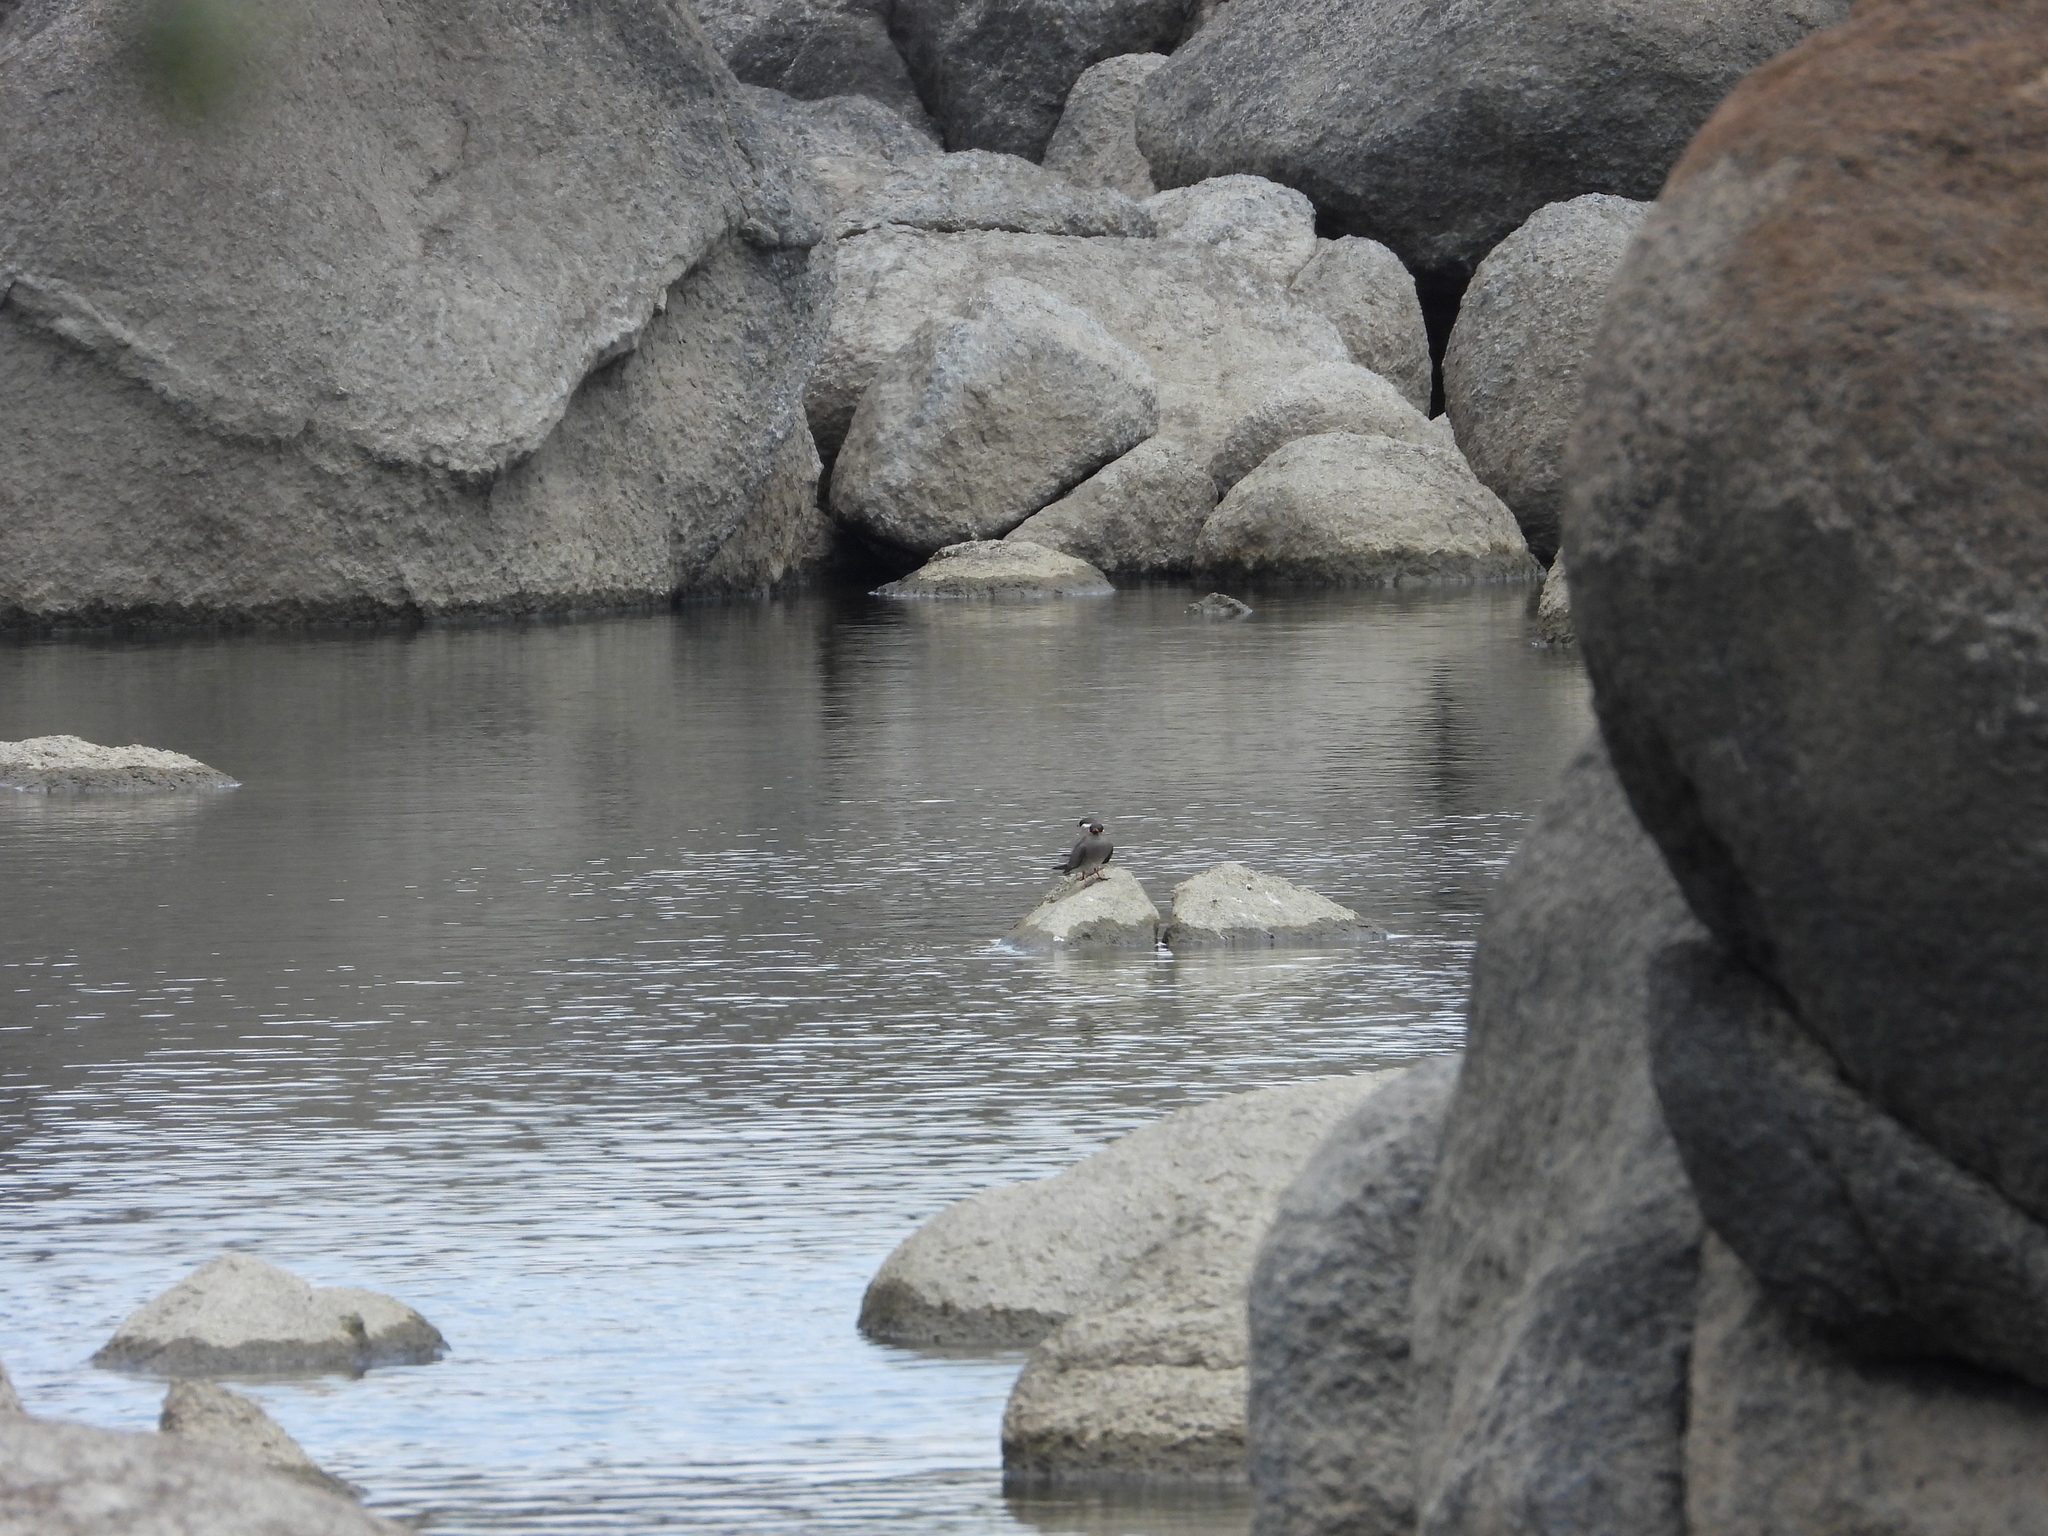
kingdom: Animalia
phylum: Chordata
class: Aves
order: Charadriiformes
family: Glareolidae
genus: Glareola
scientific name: Glareola nuchalis
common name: Rock pratincole
